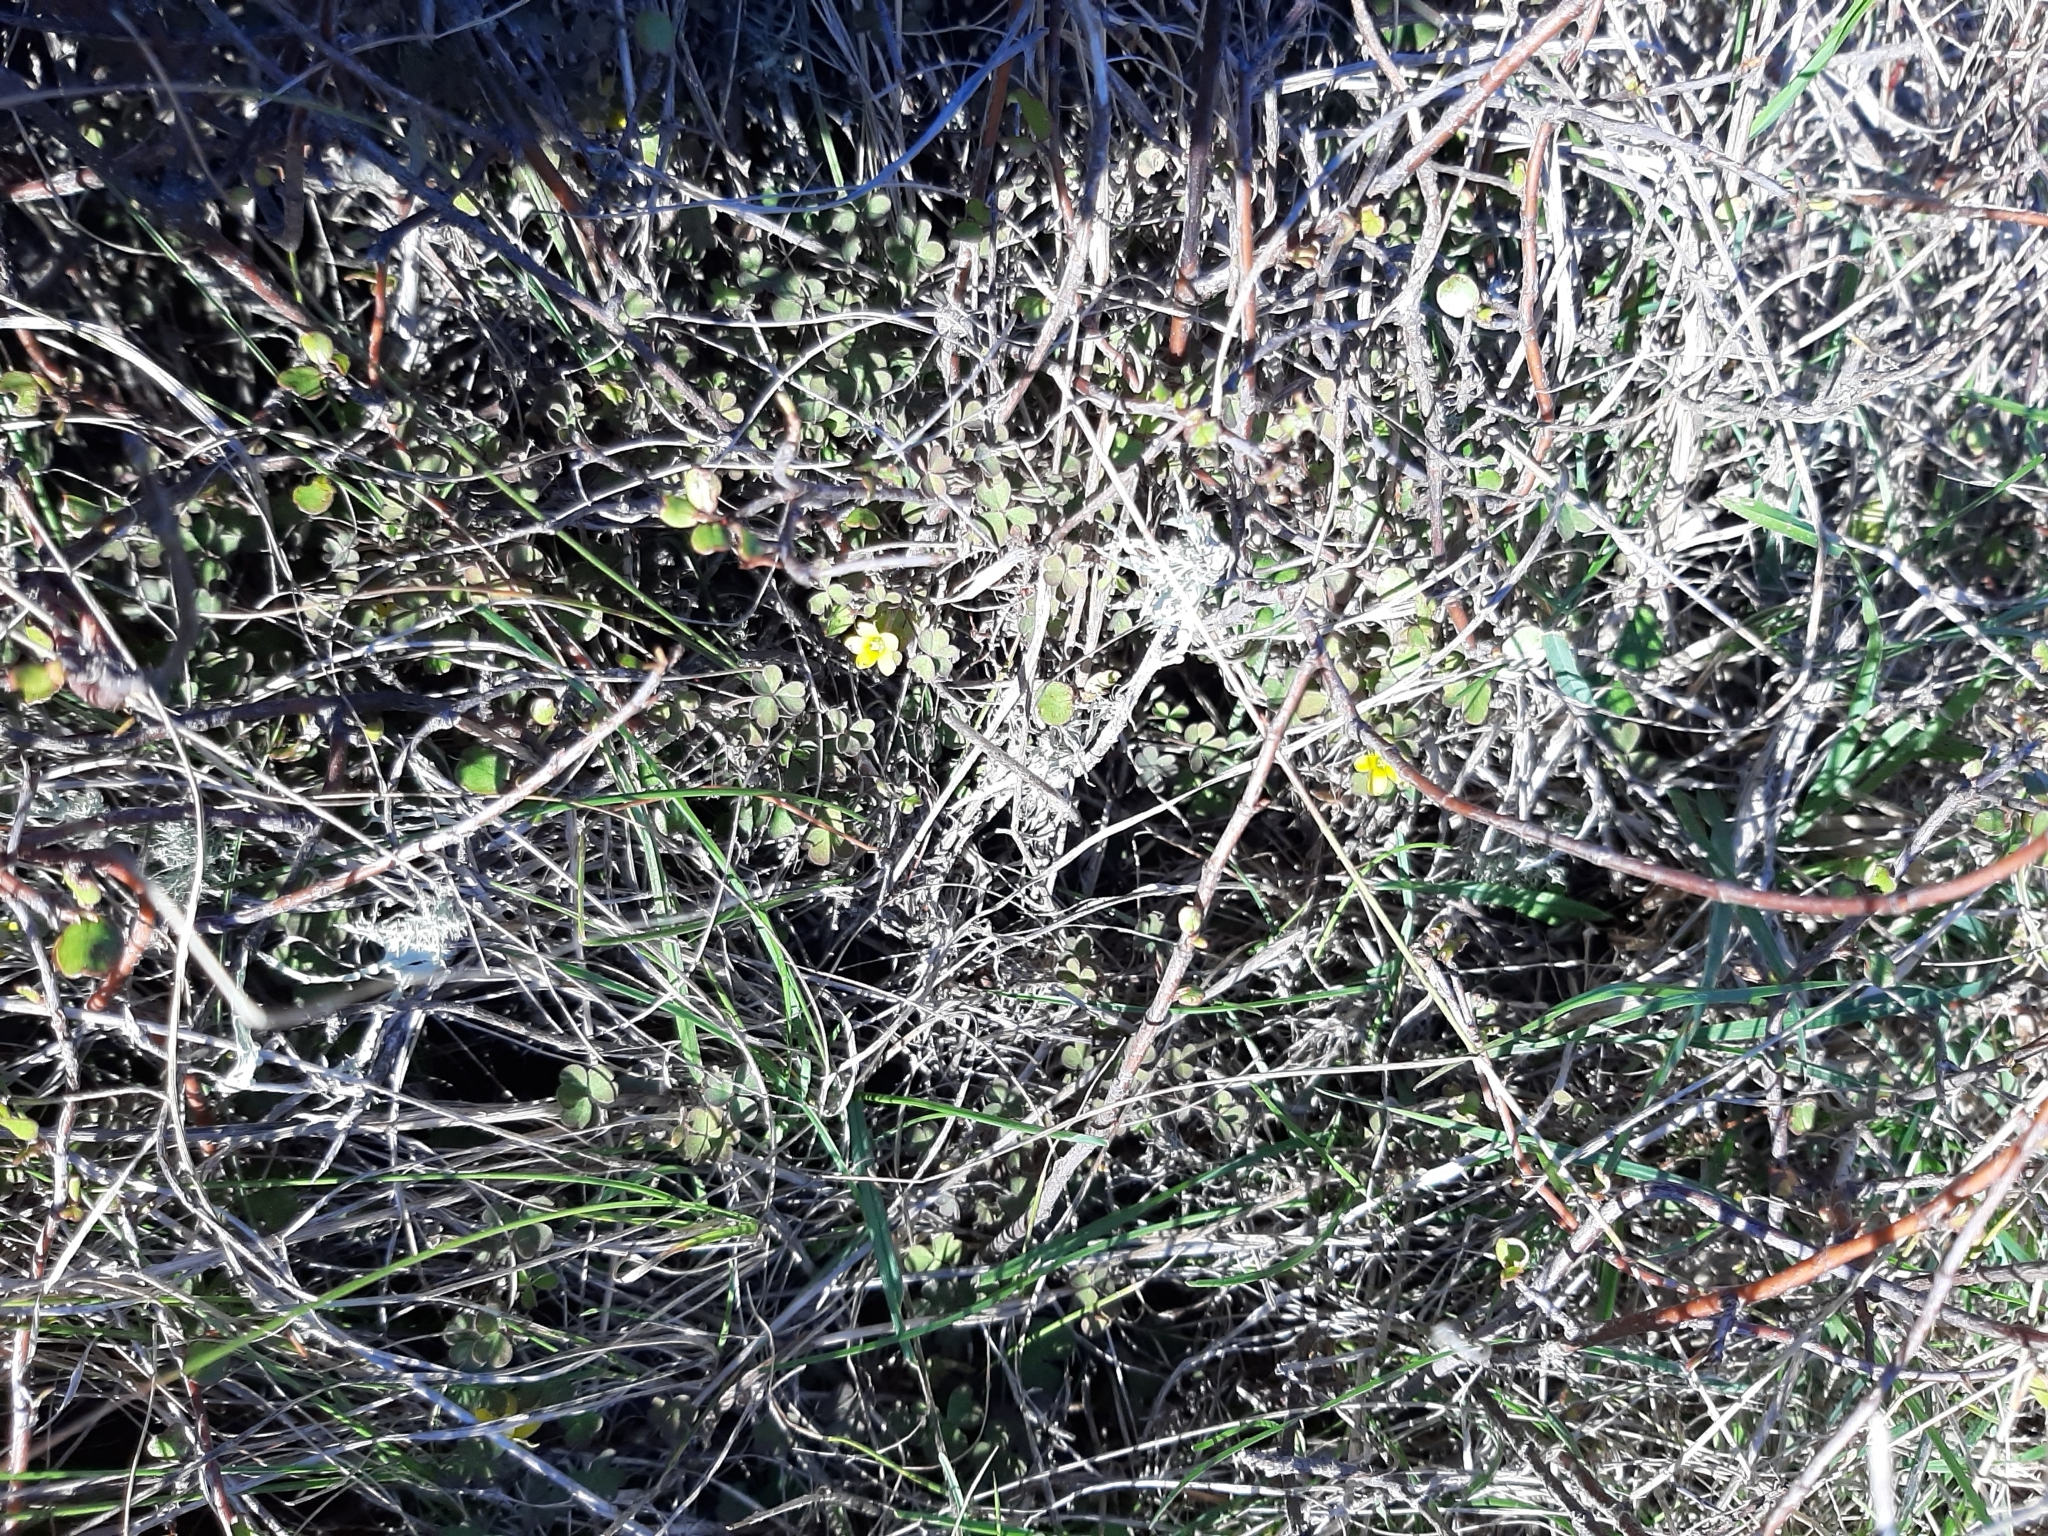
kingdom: Plantae
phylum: Tracheophyta
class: Magnoliopsida
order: Oxalidales
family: Oxalidaceae
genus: Oxalis
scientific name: Oxalis exilis
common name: Least yellow-sorrel
